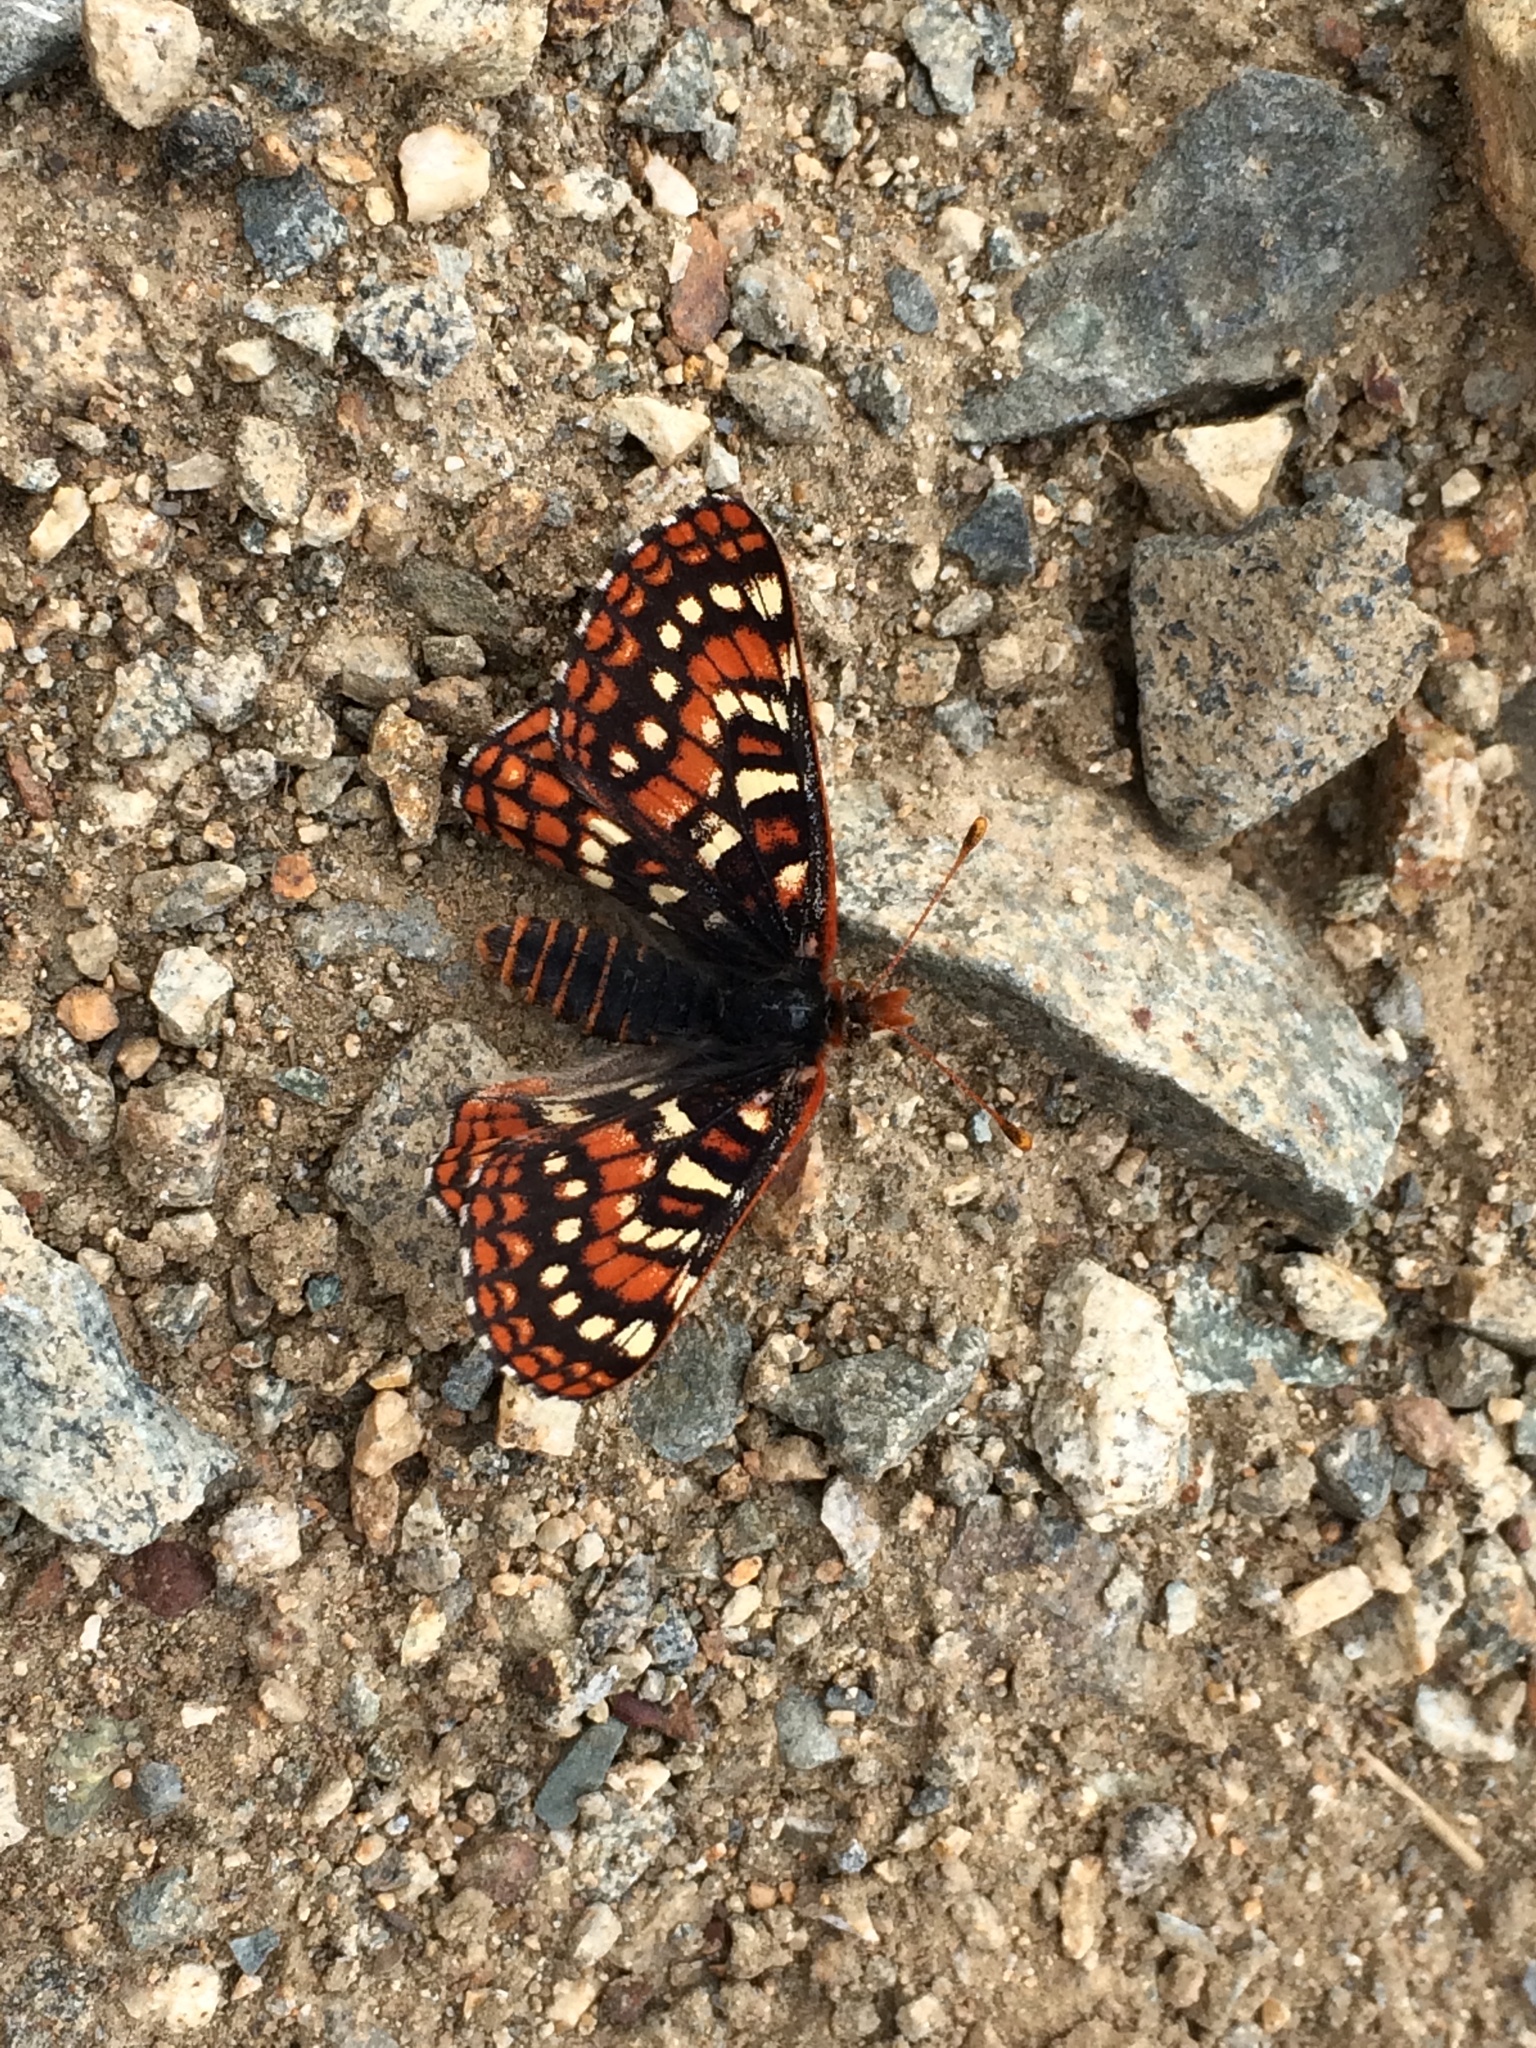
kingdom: Animalia
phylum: Arthropoda
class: Insecta
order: Lepidoptera
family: Nymphalidae
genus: Occidryas
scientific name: Occidryas editha
